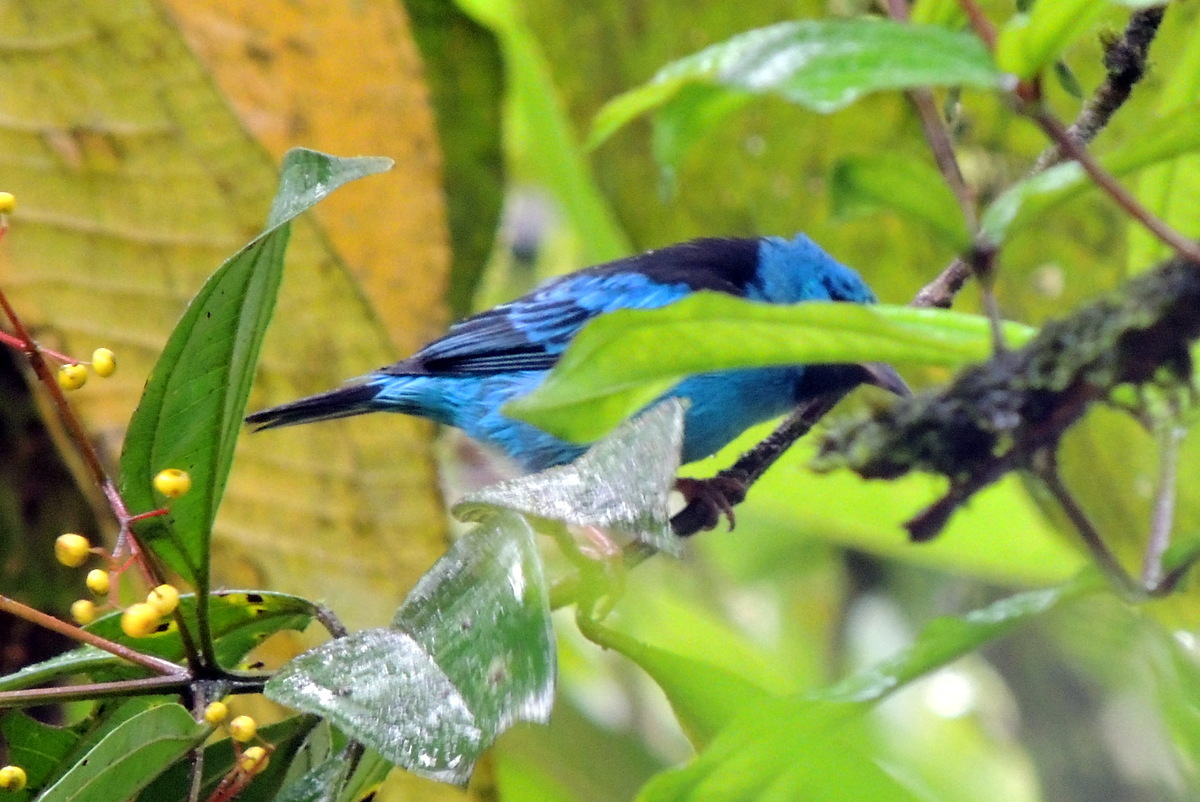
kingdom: Animalia
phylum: Chordata
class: Aves
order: Passeriformes
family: Thraupidae
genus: Dacnis
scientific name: Dacnis cayana
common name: Blue dacnis
